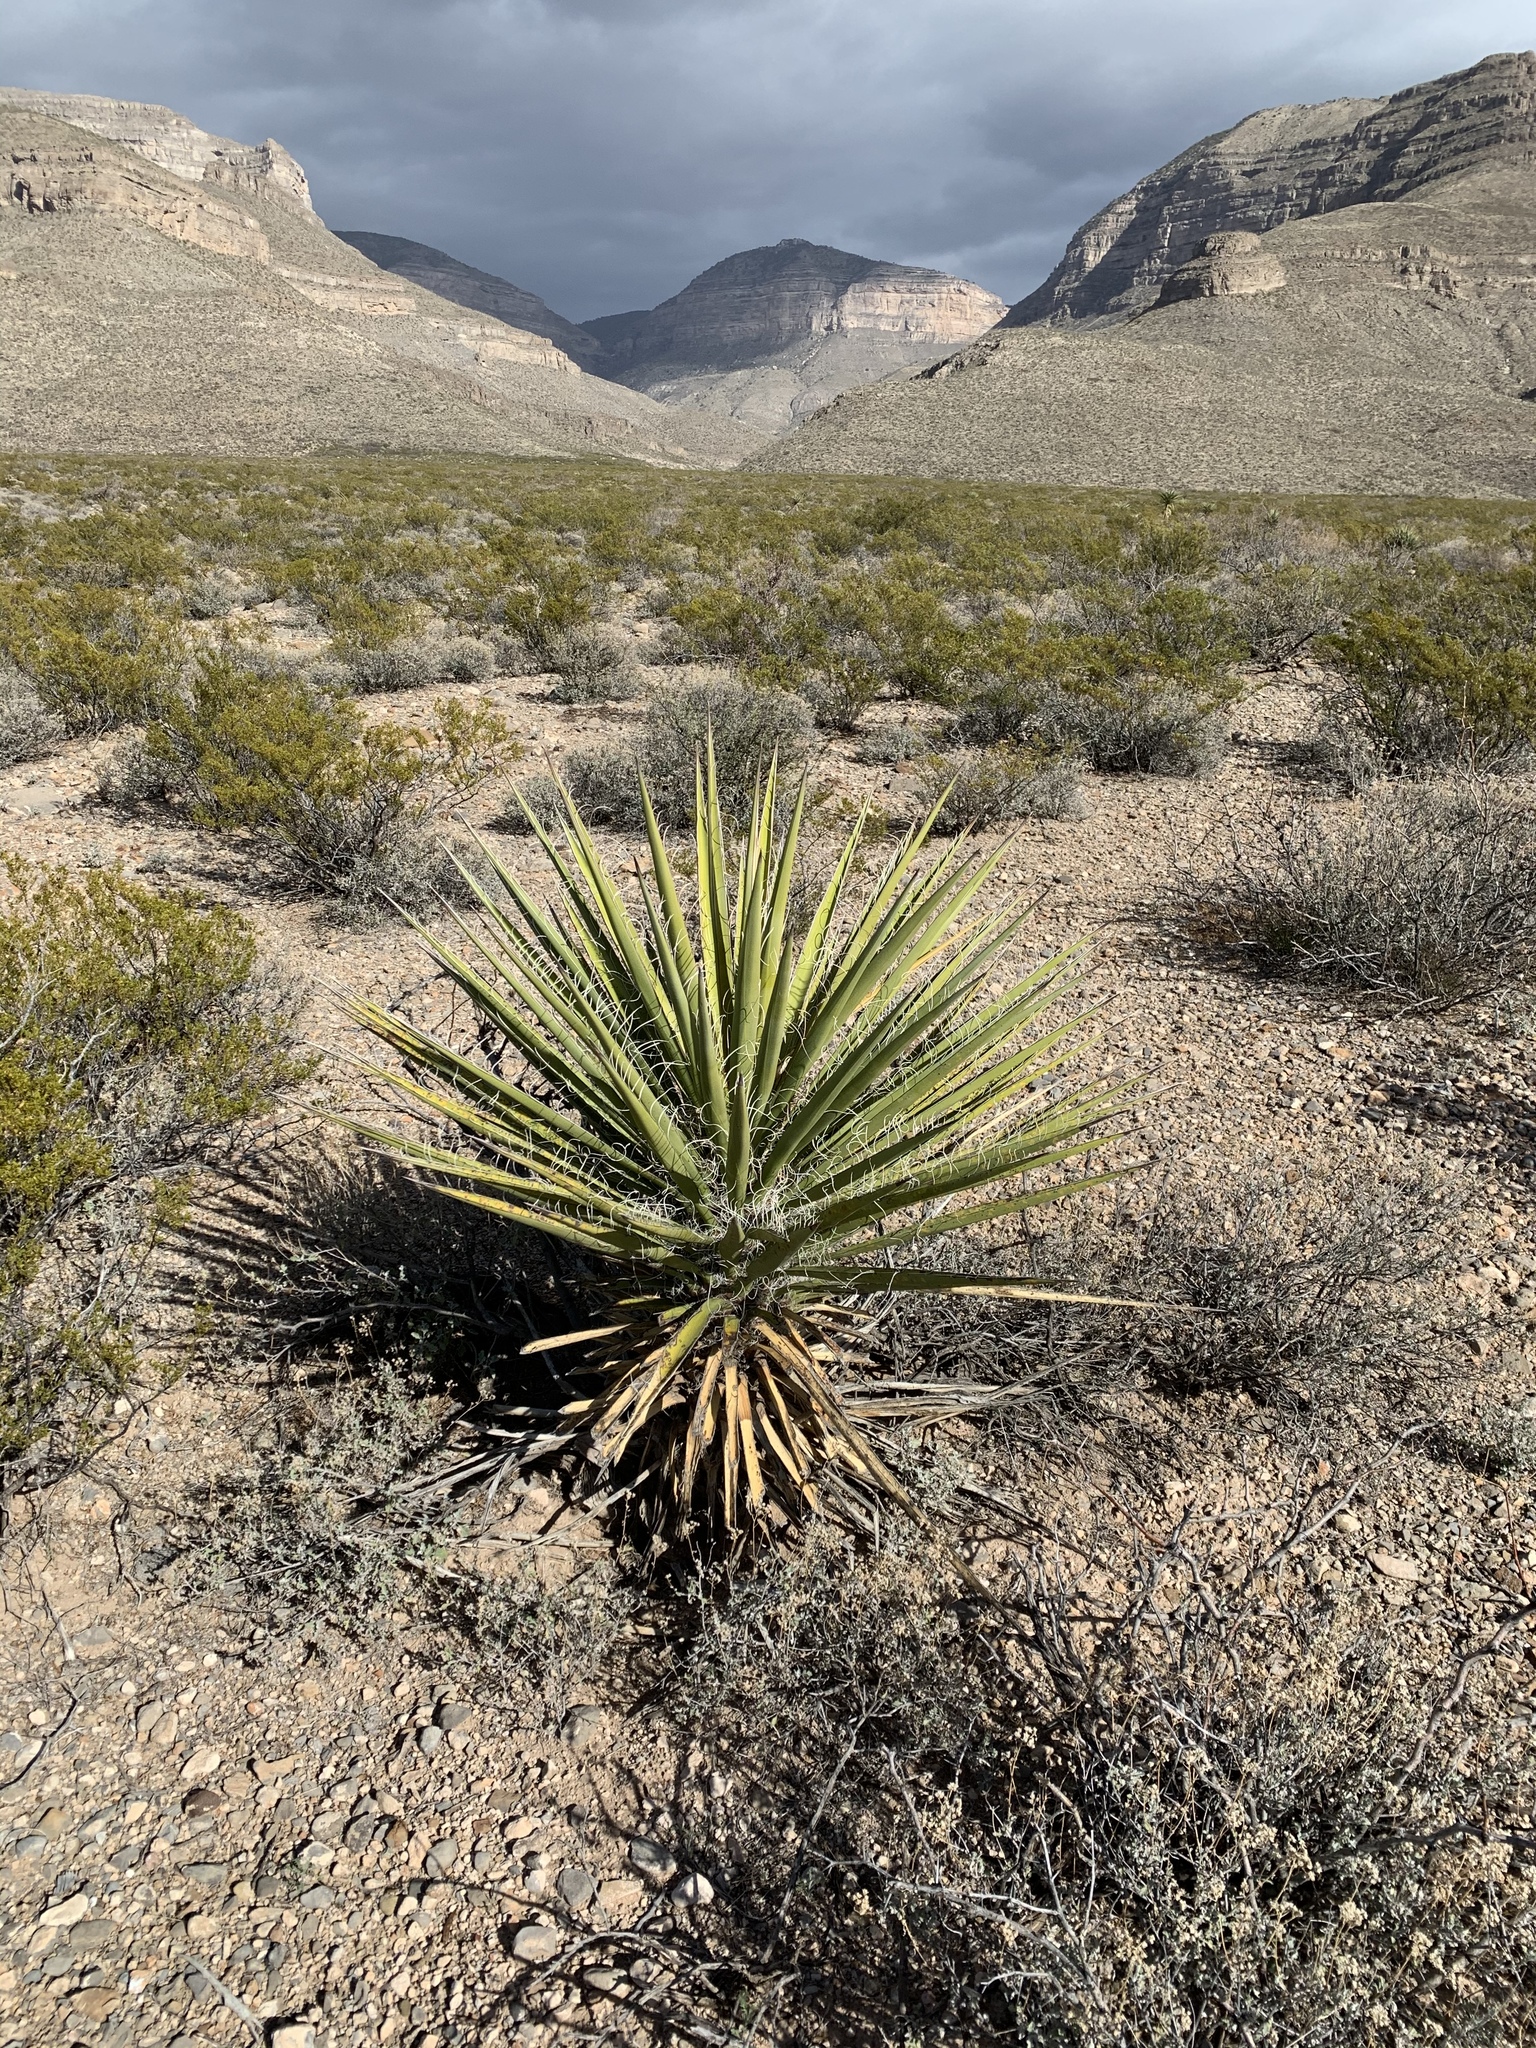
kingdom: Plantae
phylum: Tracheophyta
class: Liliopsida
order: Asparagales
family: Asparagaceae
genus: Yucca
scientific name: Yucca elata
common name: Palmella
